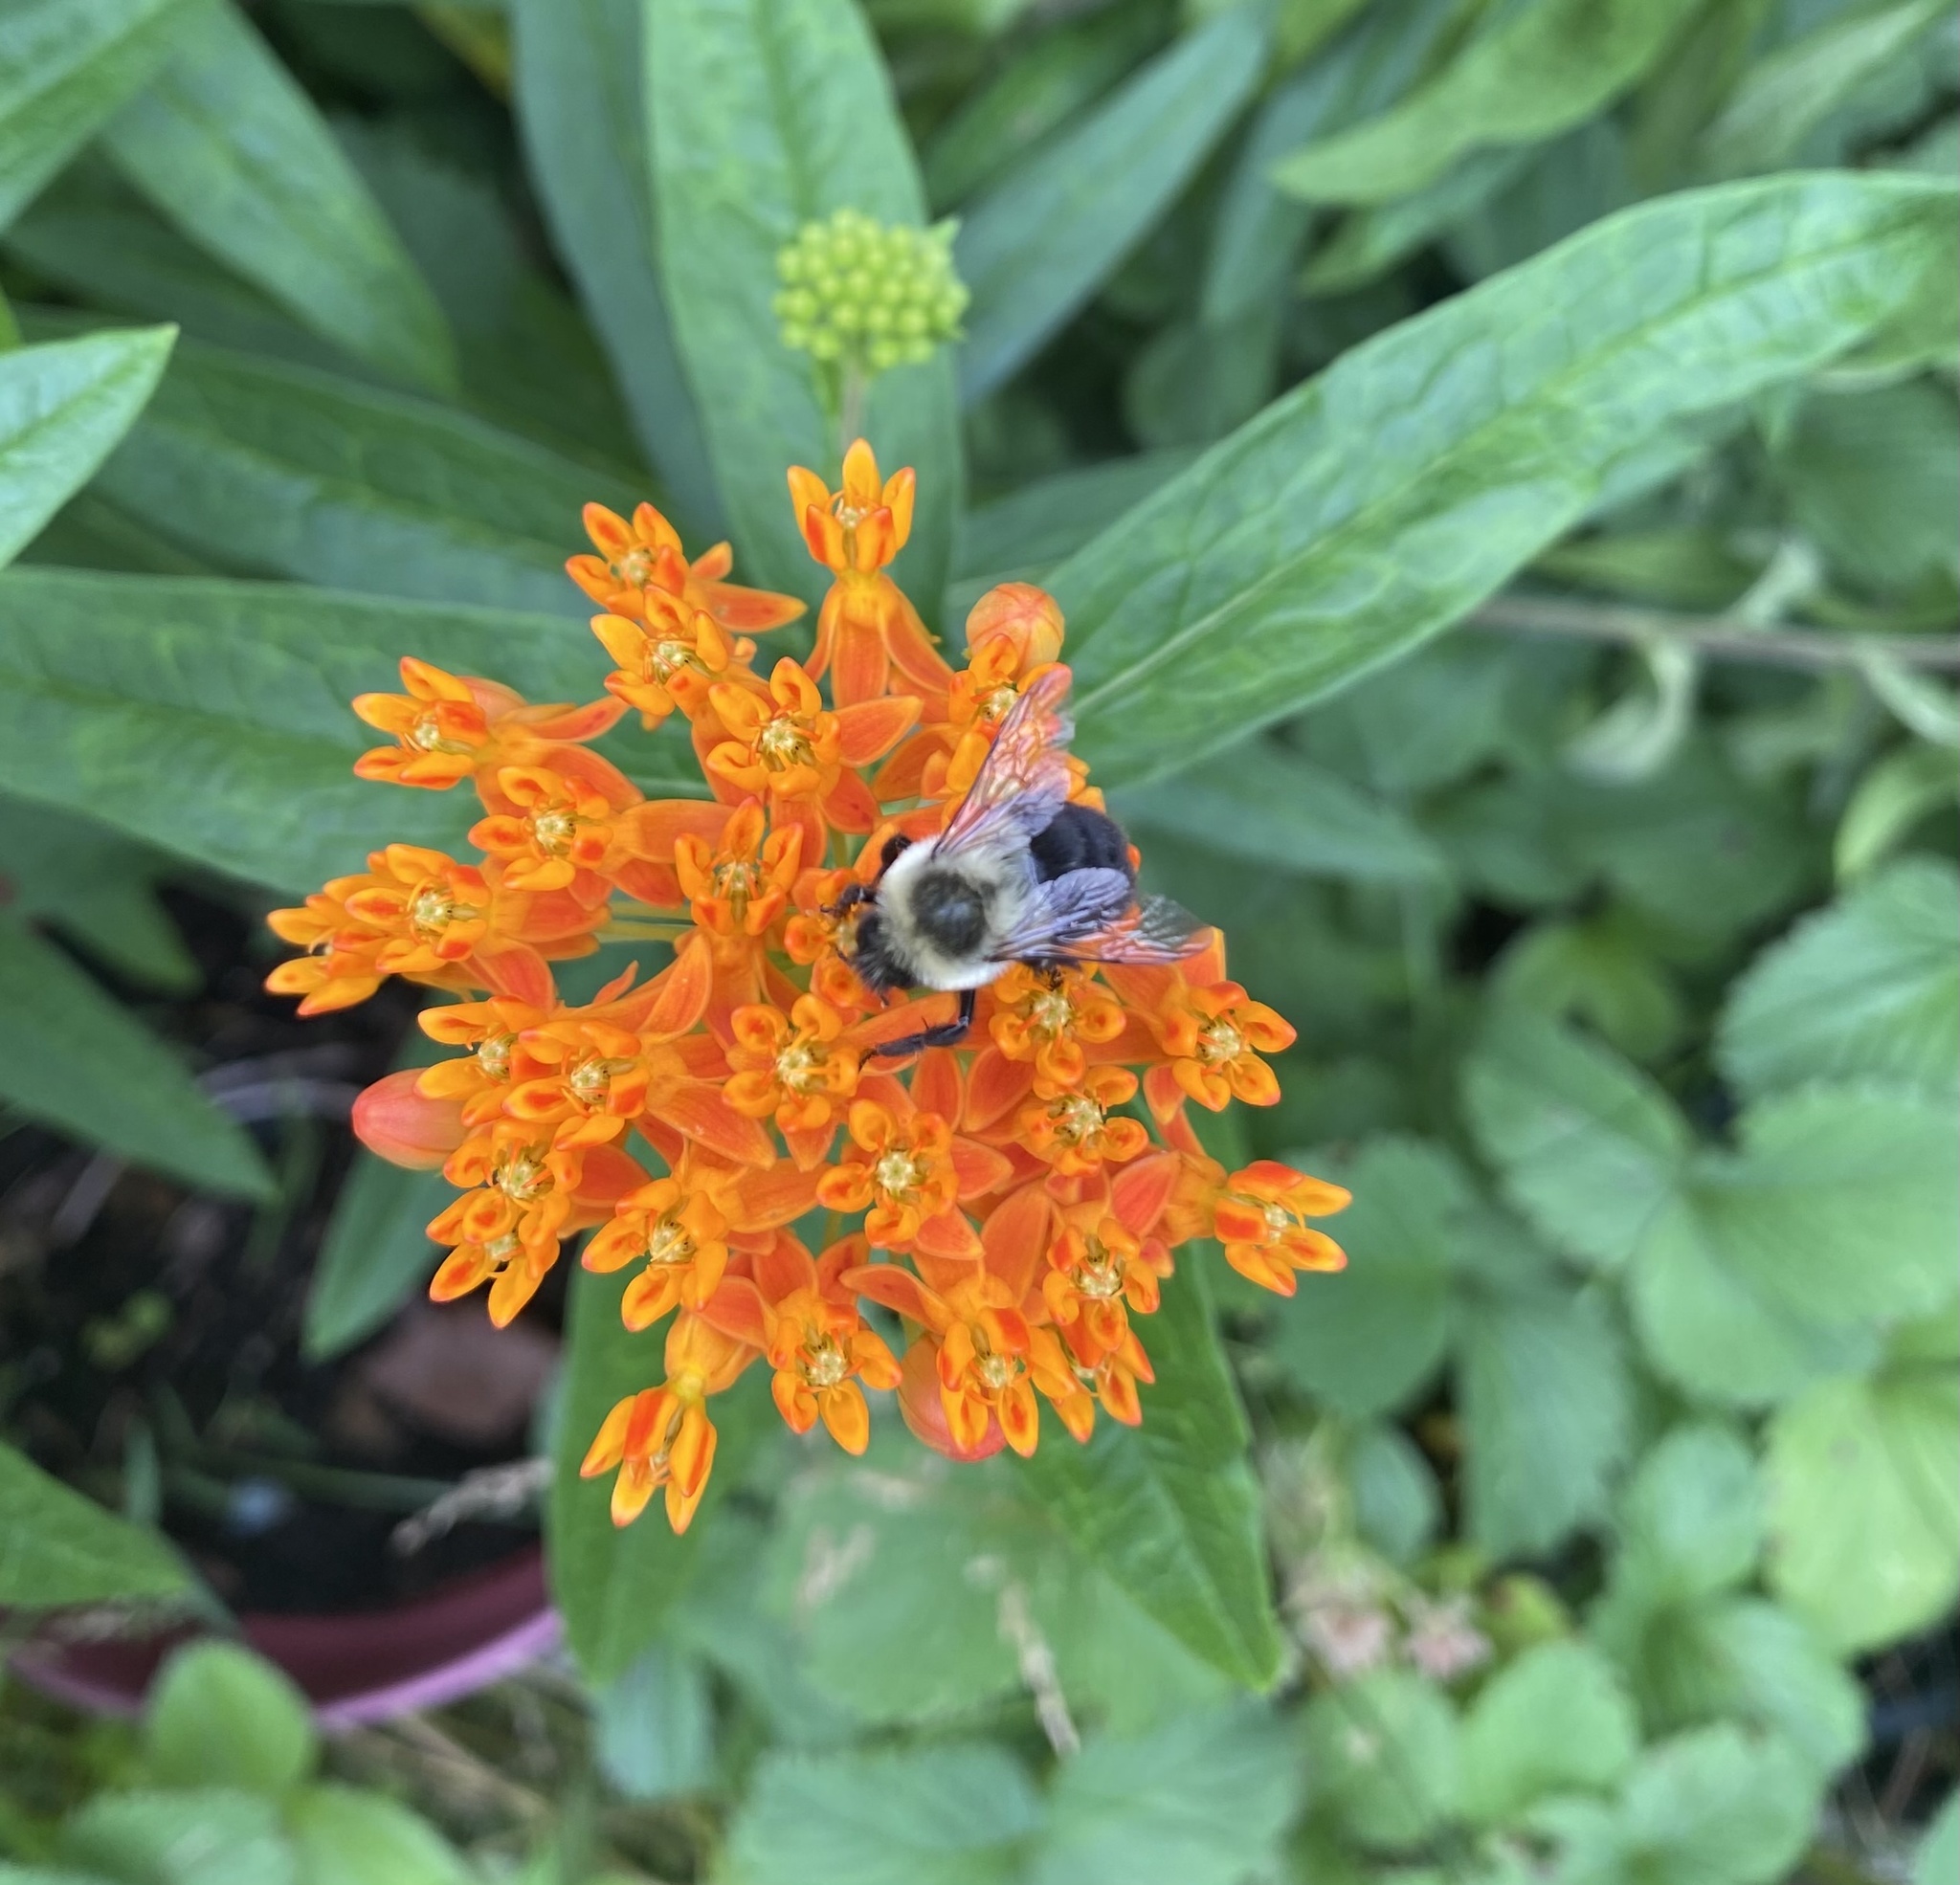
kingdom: Animalia
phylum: Arthropoda
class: Insecta
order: Hymenoptera
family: Apidae
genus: Bombus
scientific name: Bombus impatiens
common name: Common eastern bumble bee
